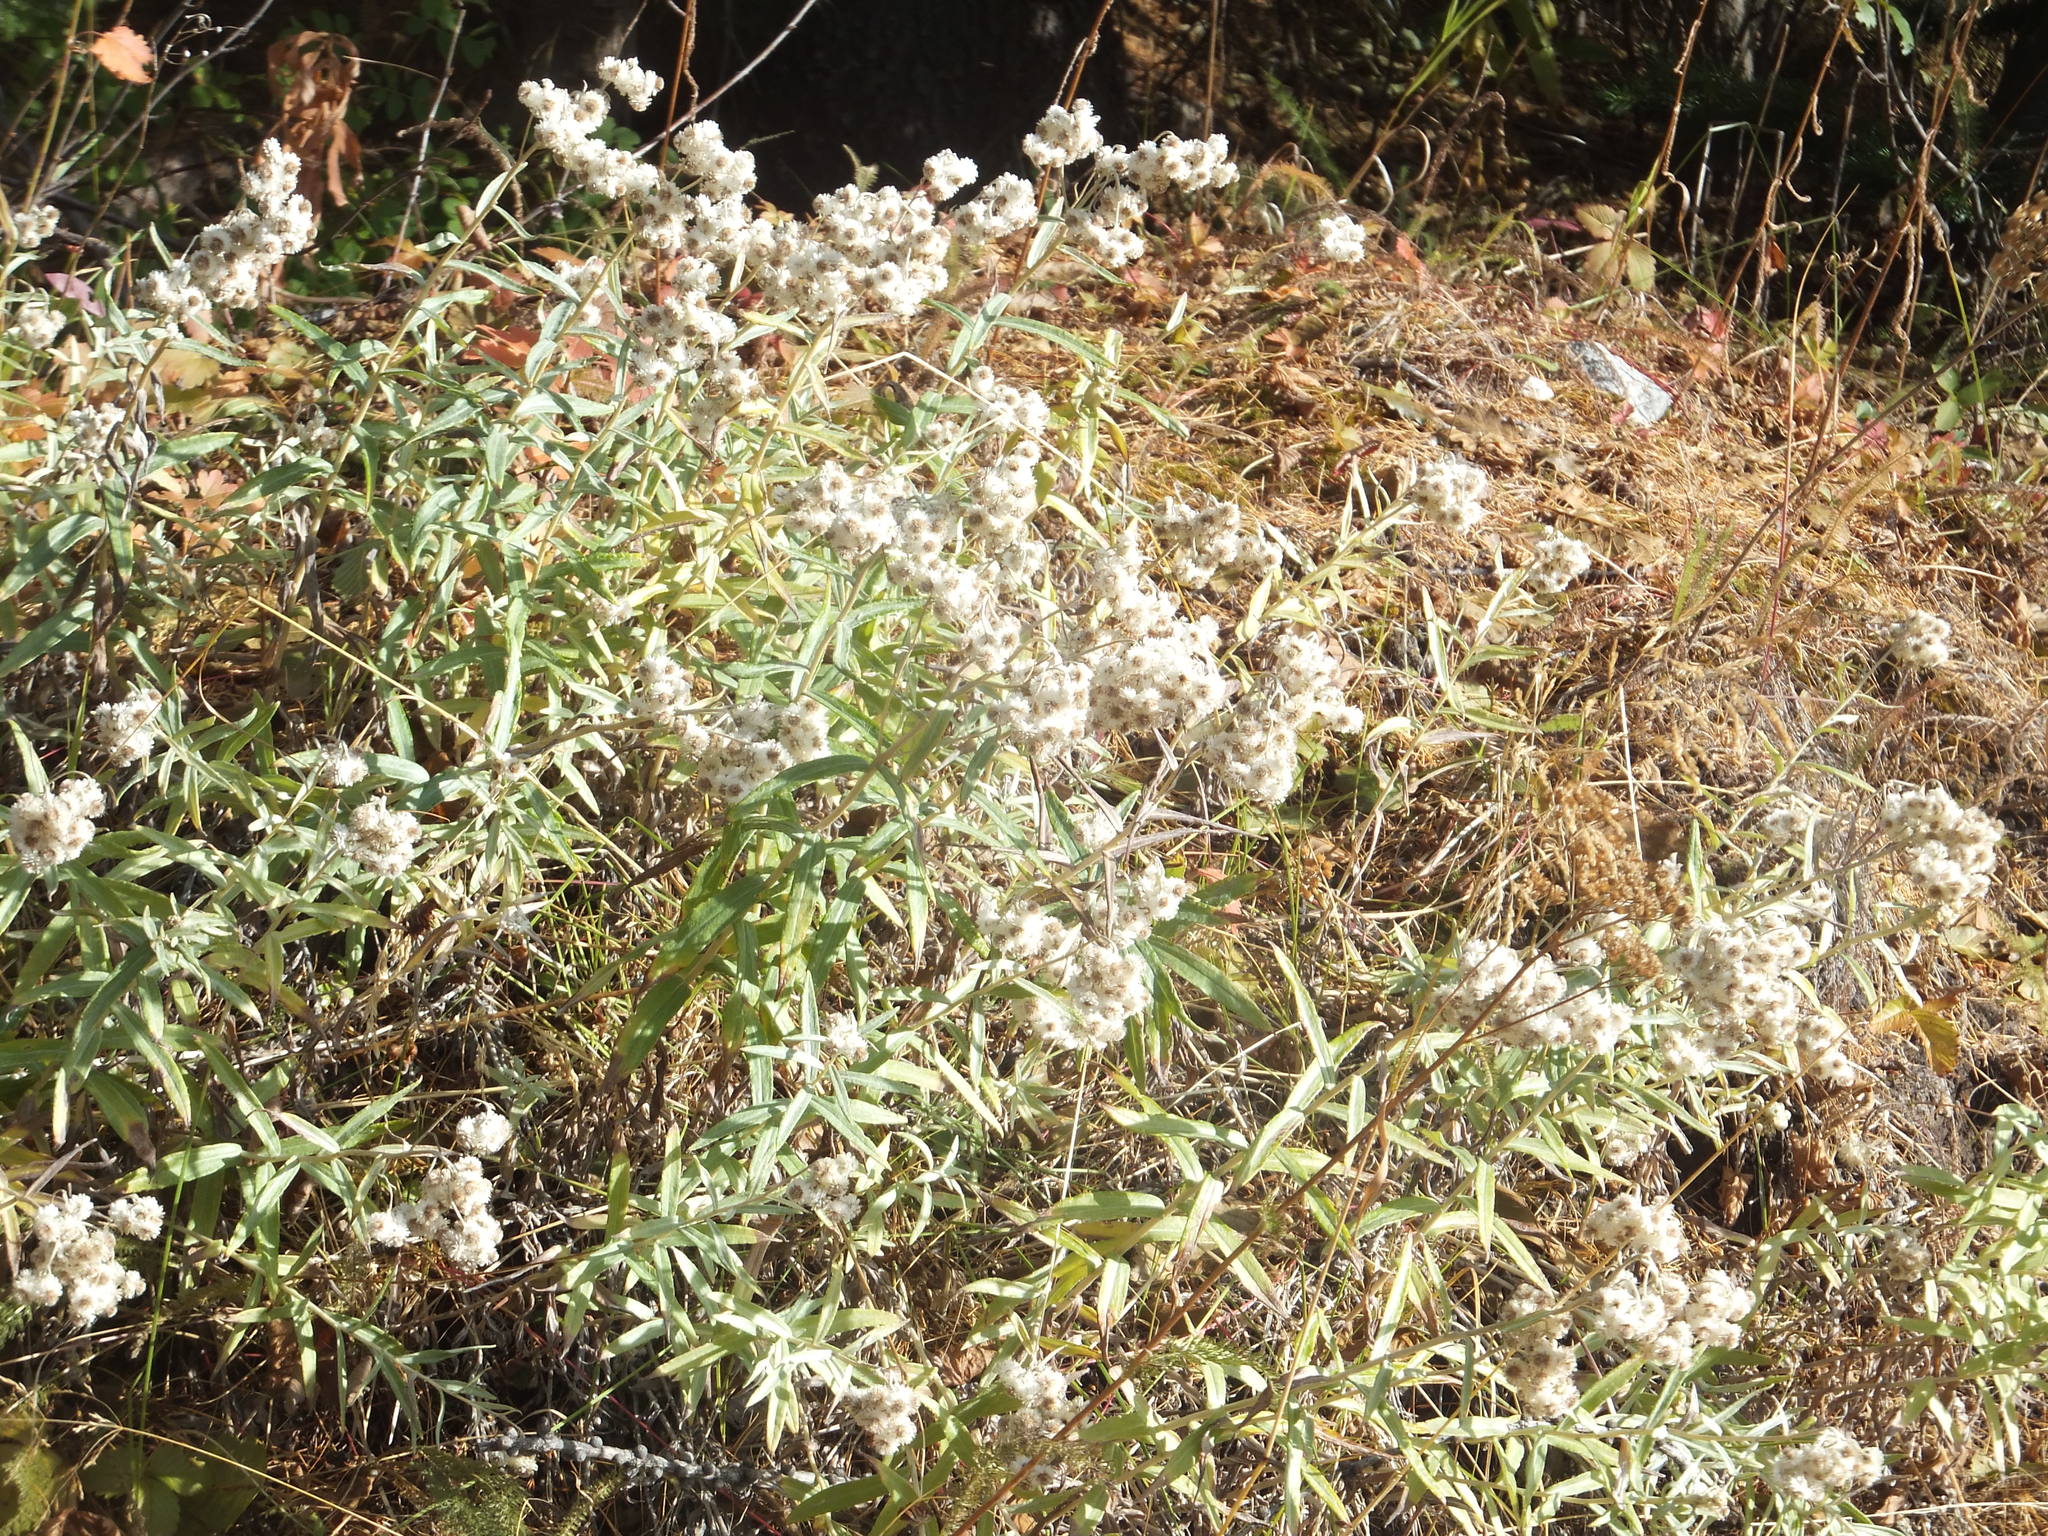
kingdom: Plantae
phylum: Tracheophyta
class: Magnoliopsida
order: Asterales
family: Asteraceae
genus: Anaphalis
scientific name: Anaphalis margaritacea
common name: Pearly everlasting
